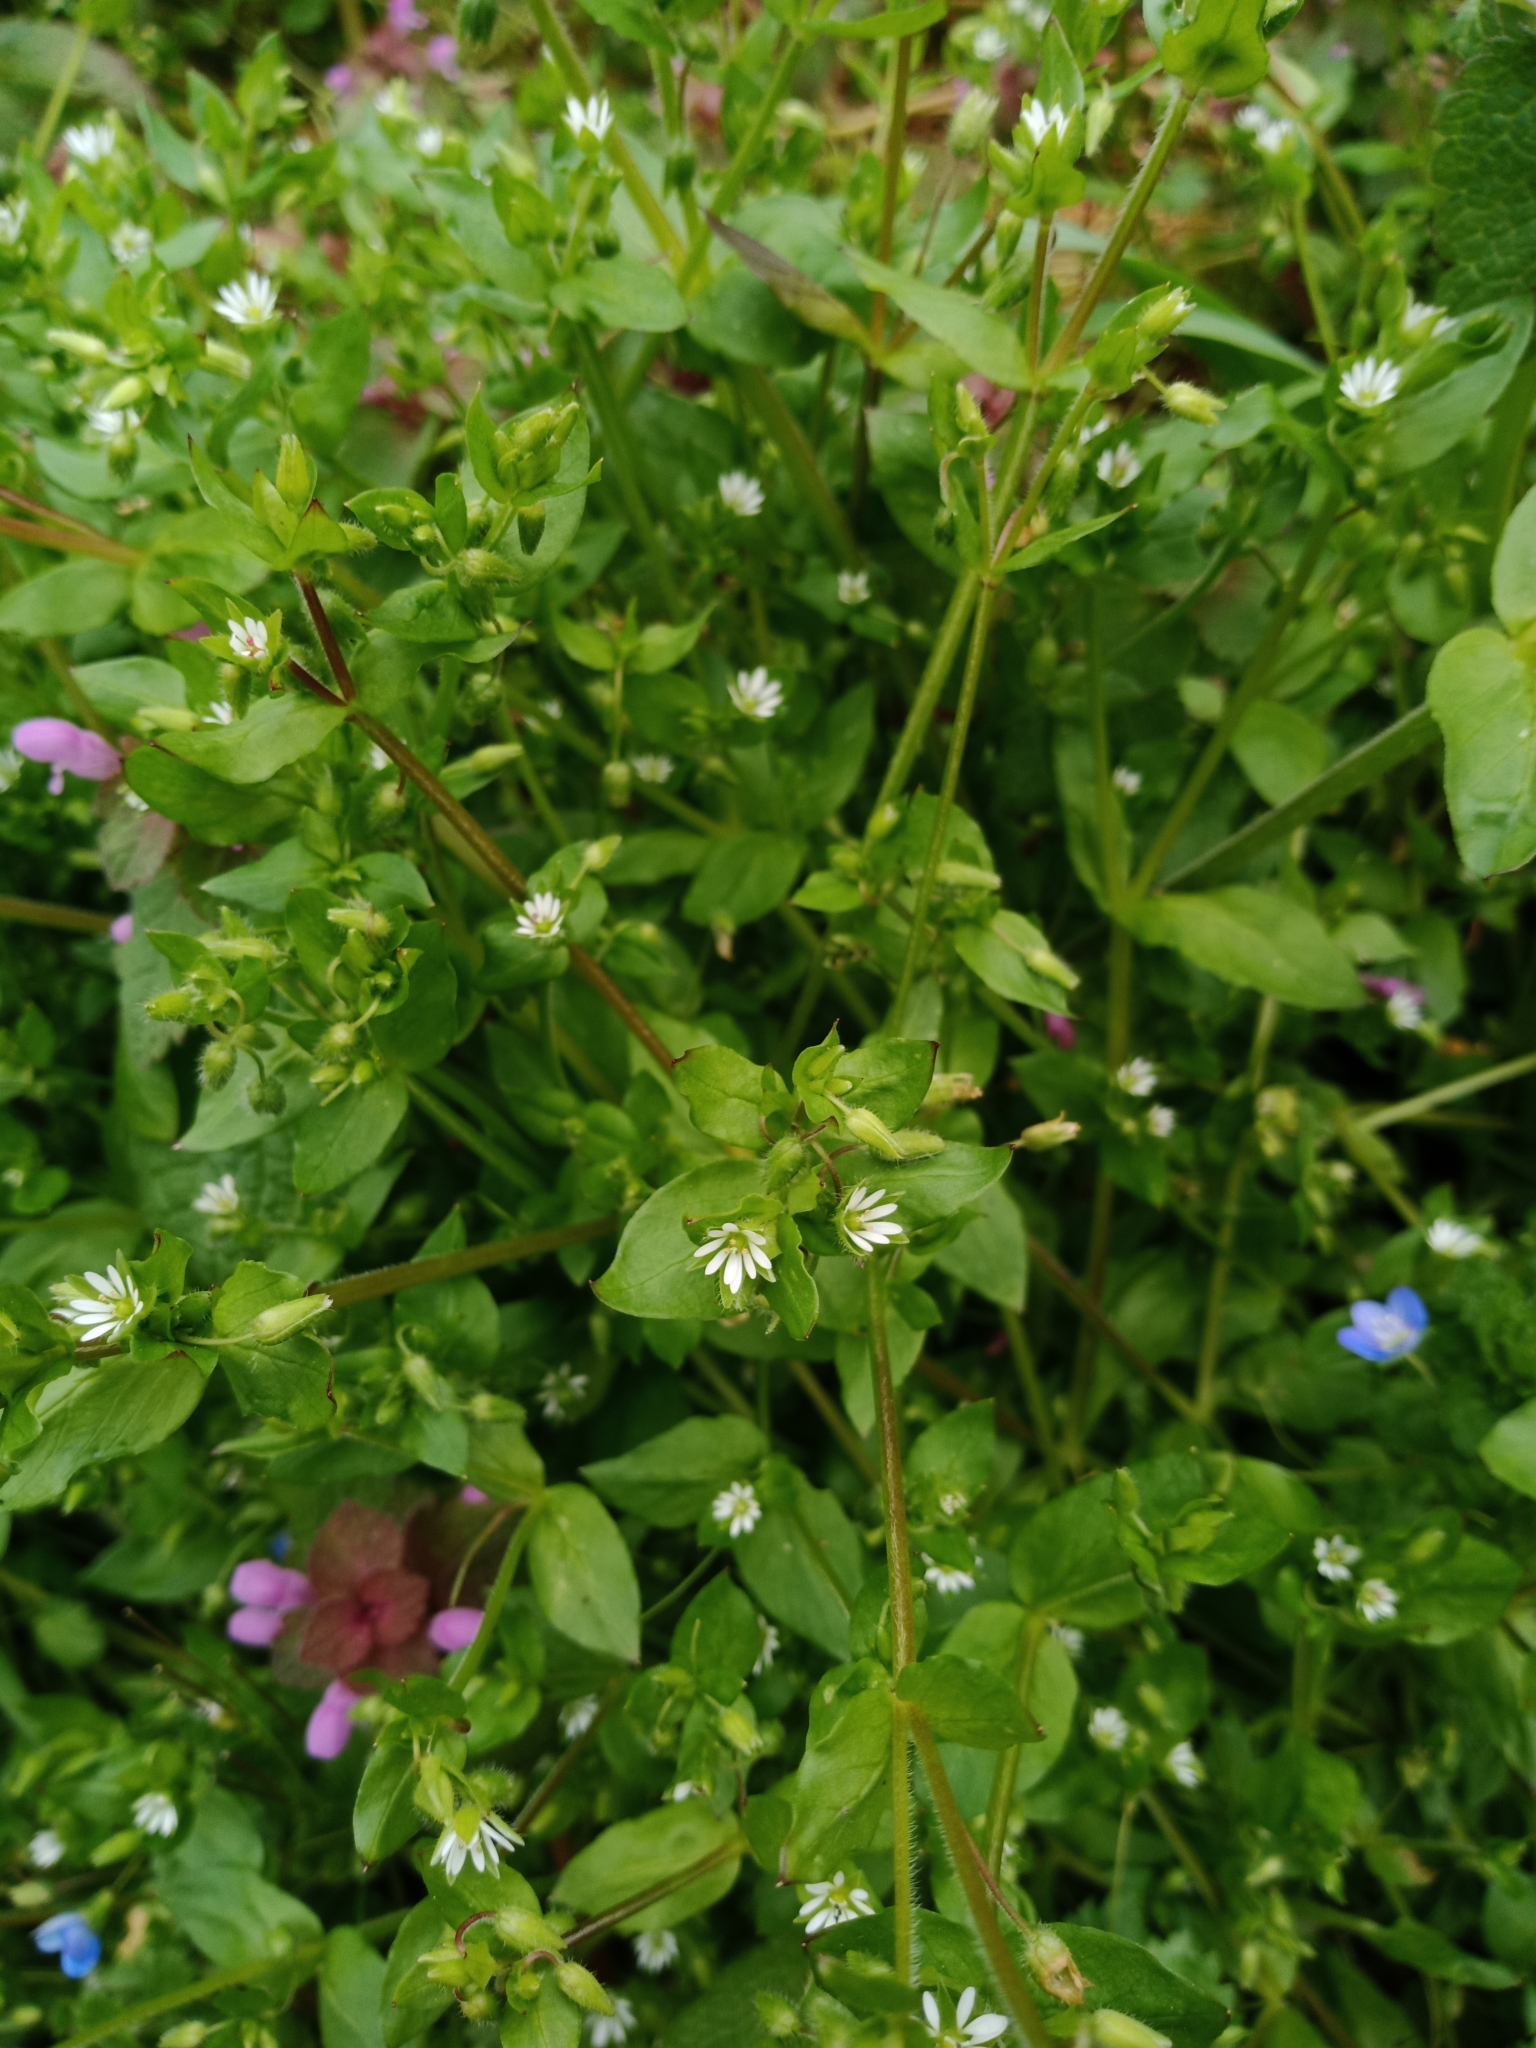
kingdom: Plantae
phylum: Tracheophyta
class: Magnoliopsida
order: Caryophyllales
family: Caryophyllaceae
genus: Stellaria
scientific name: Stellaria media
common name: Common chickweed
